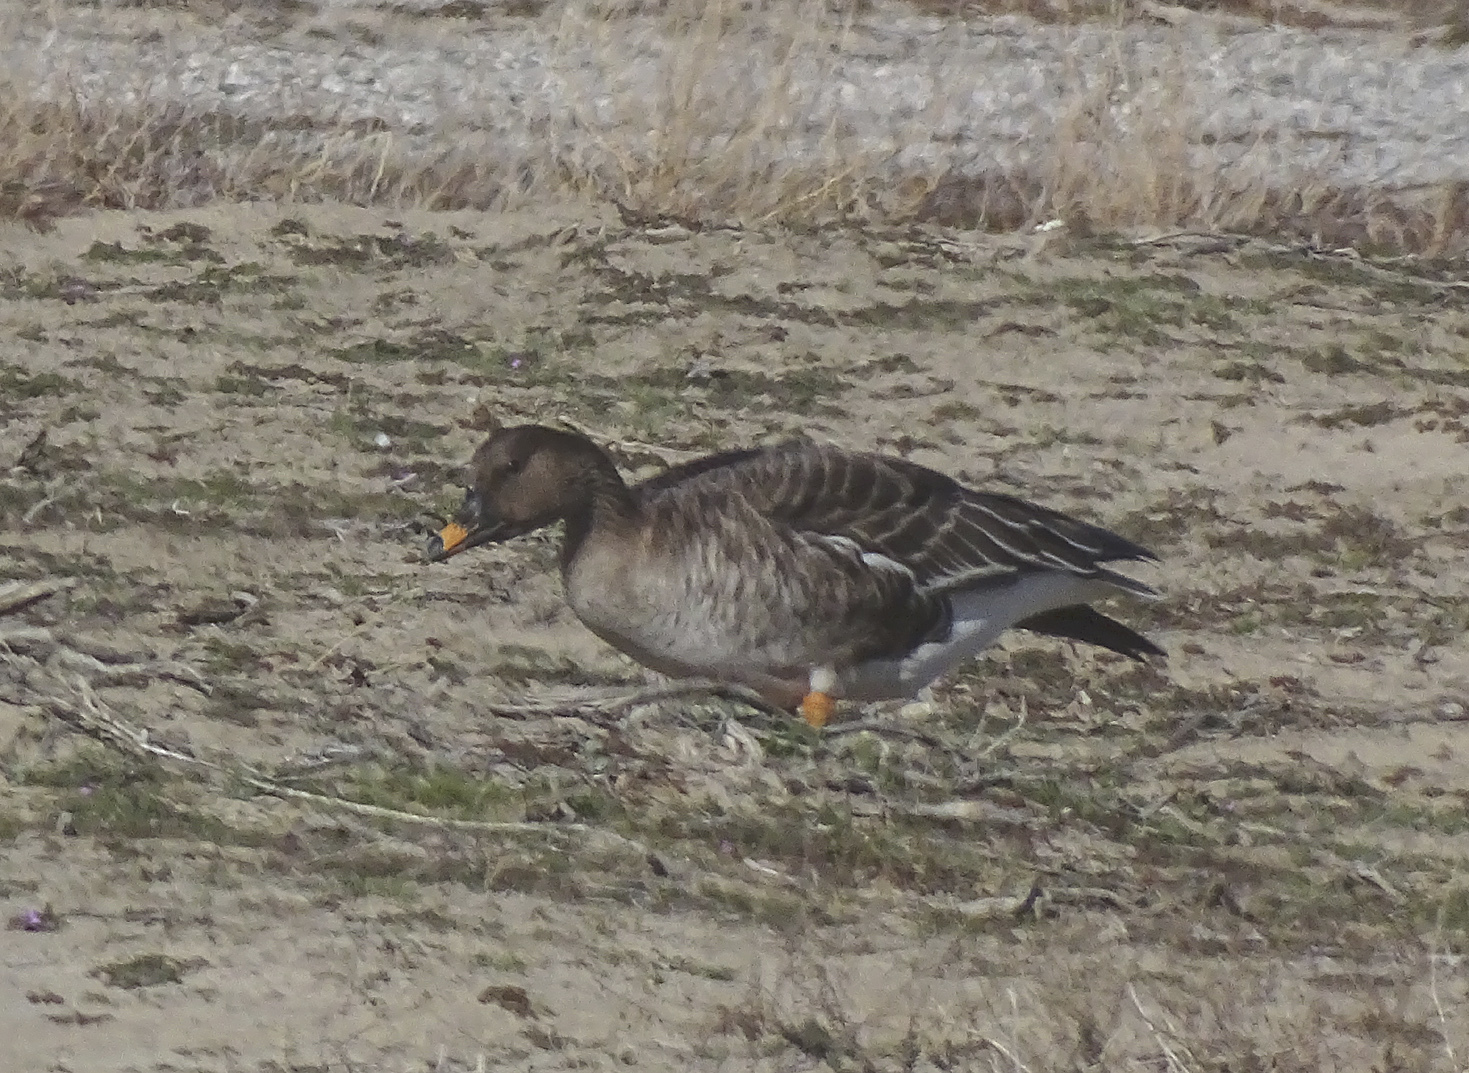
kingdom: Animalia
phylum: Chordata
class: Aves
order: Anseriformes
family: Anatidae
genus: Anser
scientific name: Anser serrirostris
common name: Tundra bean goose
